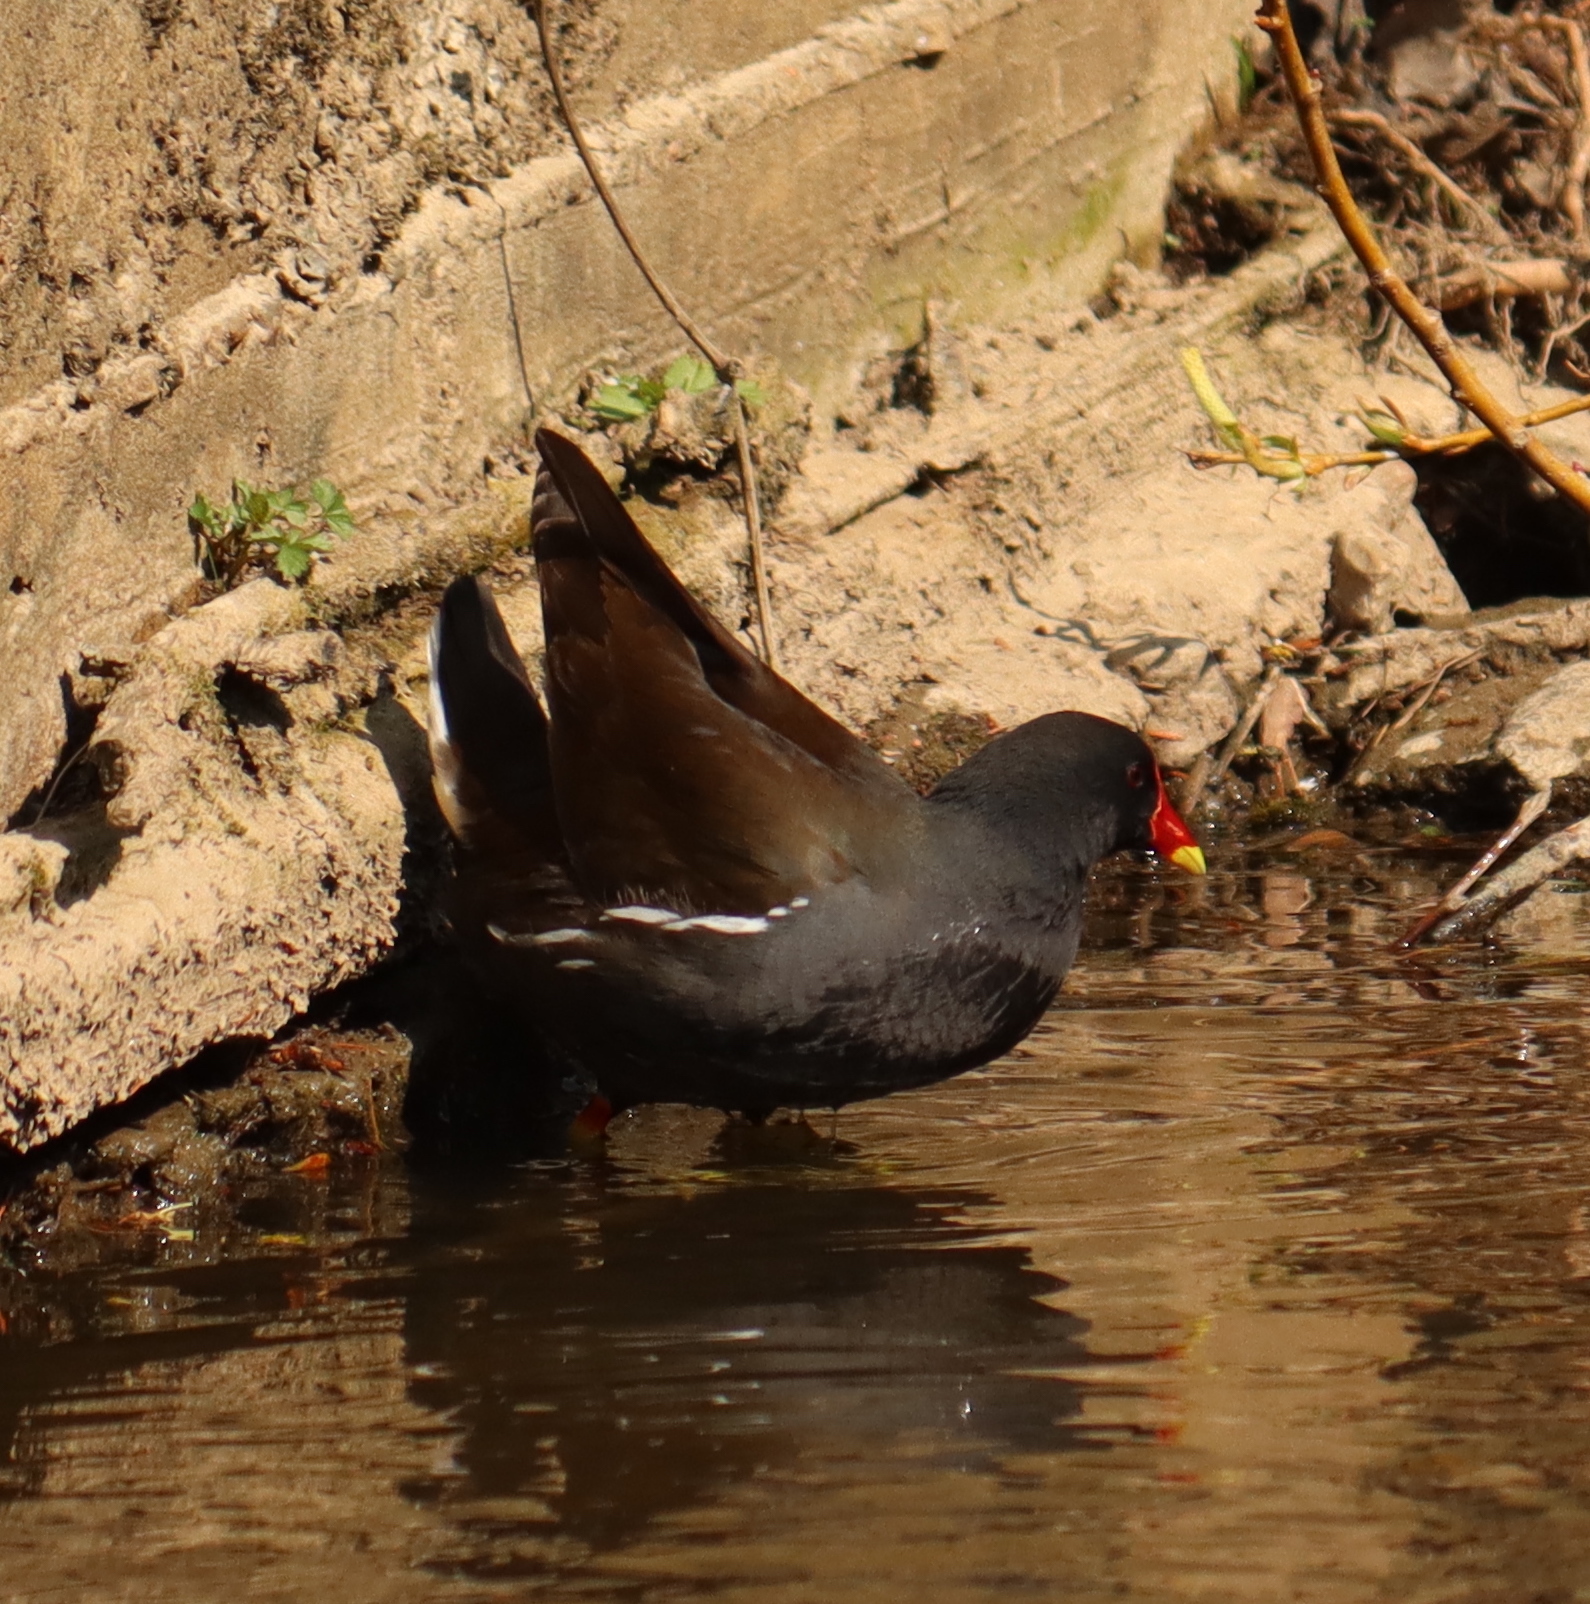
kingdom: Animalia
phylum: Chordata
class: Aves
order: Gruiformes
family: Rallidae
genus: Gallinula
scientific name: Gallinula chloropus
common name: Common moorhen
